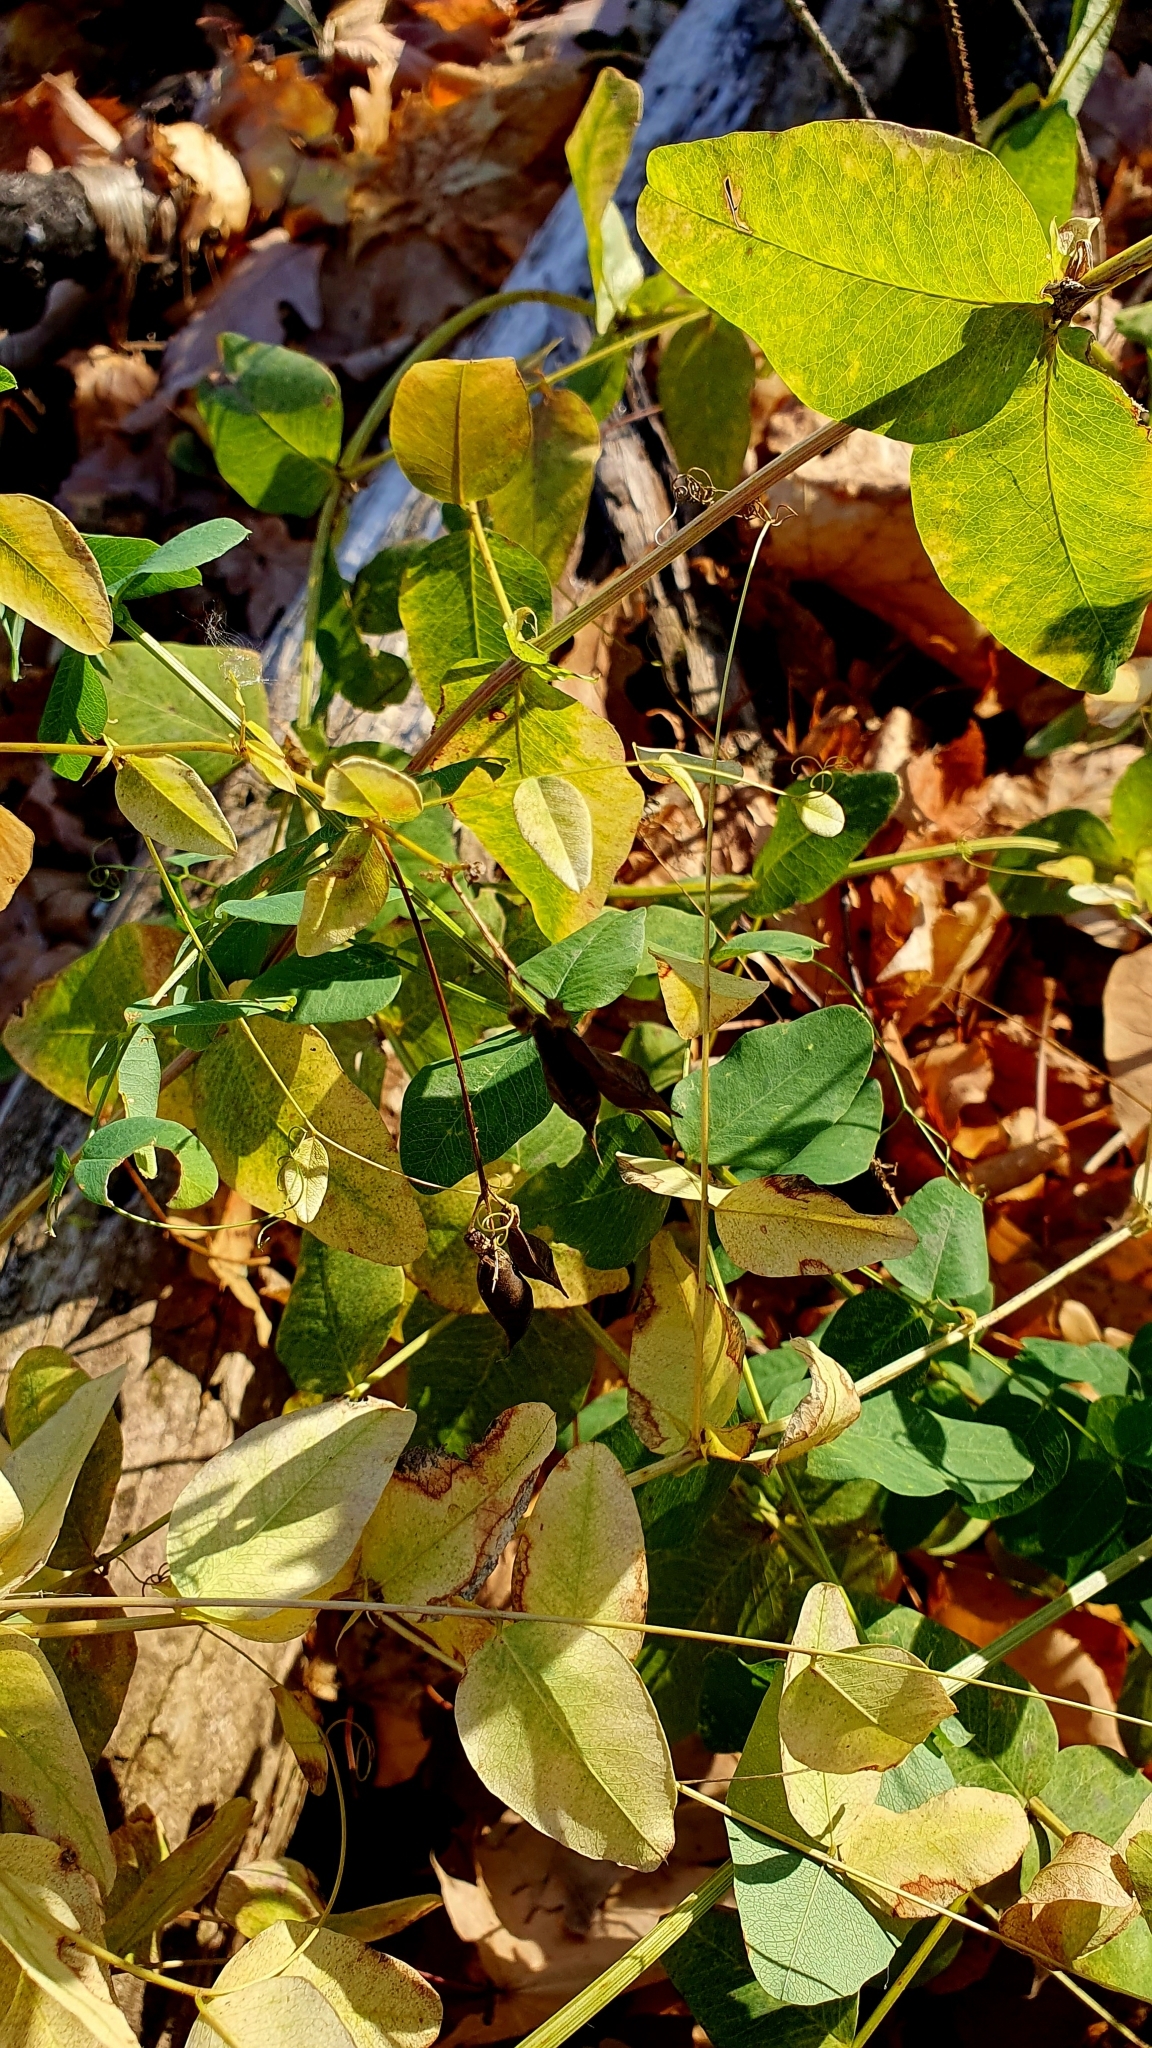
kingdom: Plantae
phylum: Tracheophyta
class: Magnoliopsida
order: Fabales
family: Fabaceae
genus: Vicia
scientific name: Vicia pisiformis
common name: Pale-flower vetch
